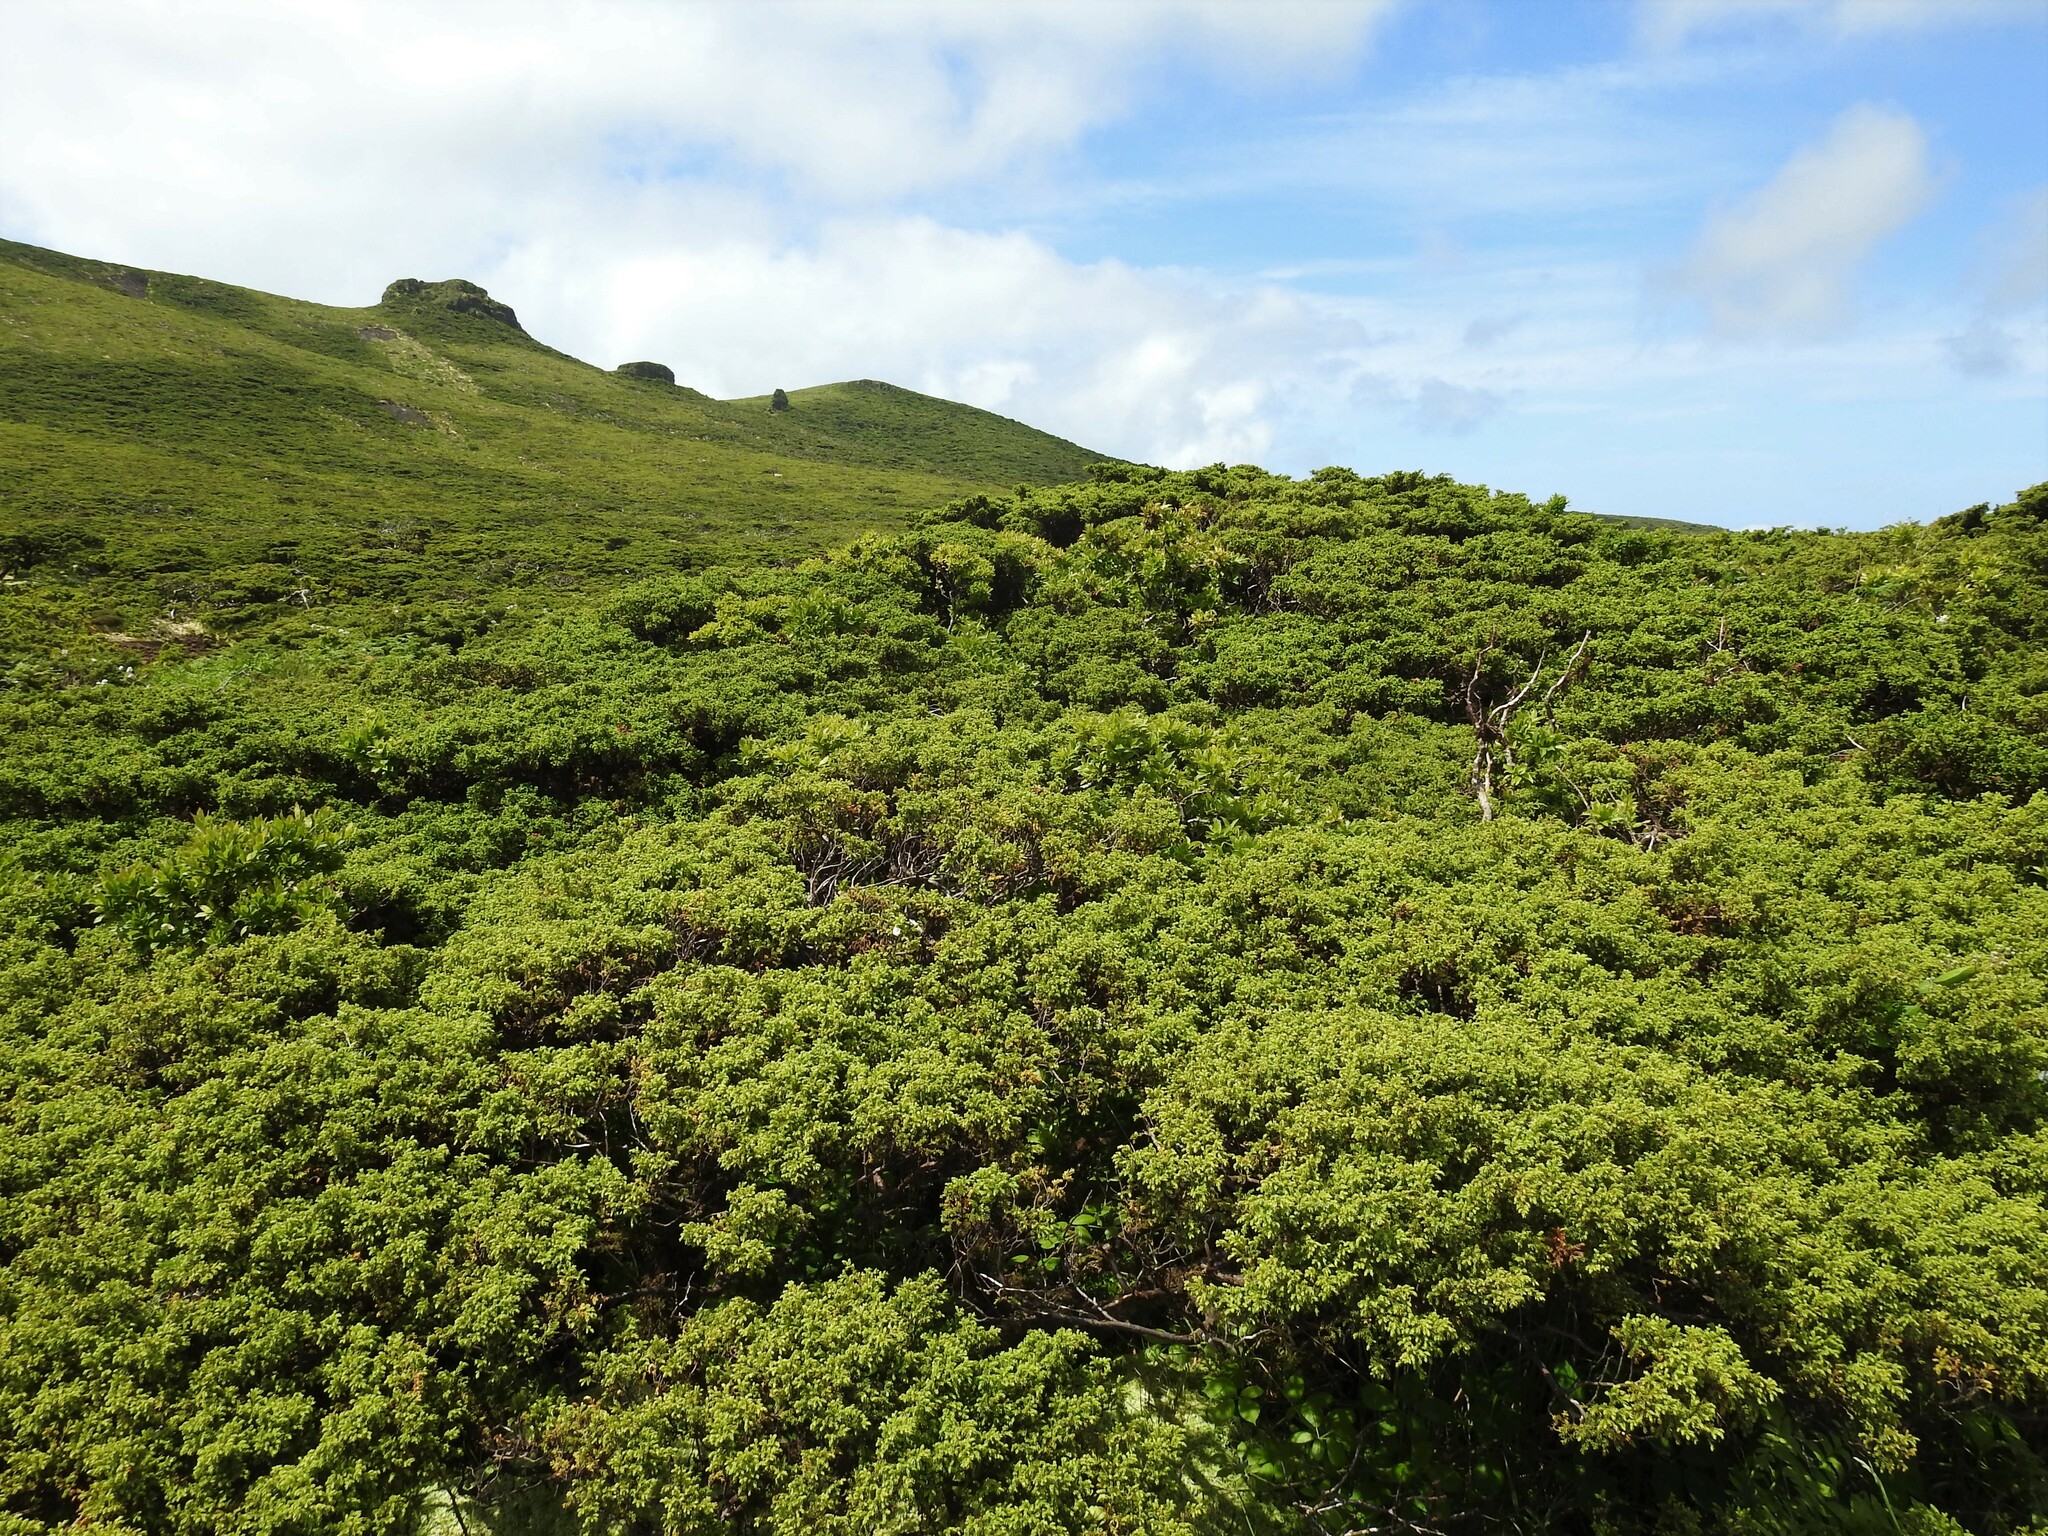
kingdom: Plantae
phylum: Tracheophyta
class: Pinopsida
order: Pinales
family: Cupressaceae
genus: Juniperus
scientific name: Juniperus brevifolia
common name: Azores juniper
